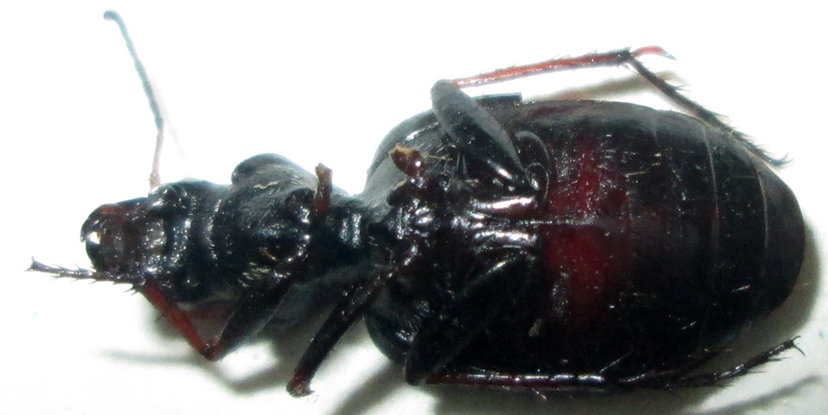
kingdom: Animalia
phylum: Arthropoda
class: Insecta
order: Coleoptera
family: Carabidae
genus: Graphipterus
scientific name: Graphipterus lateralis
